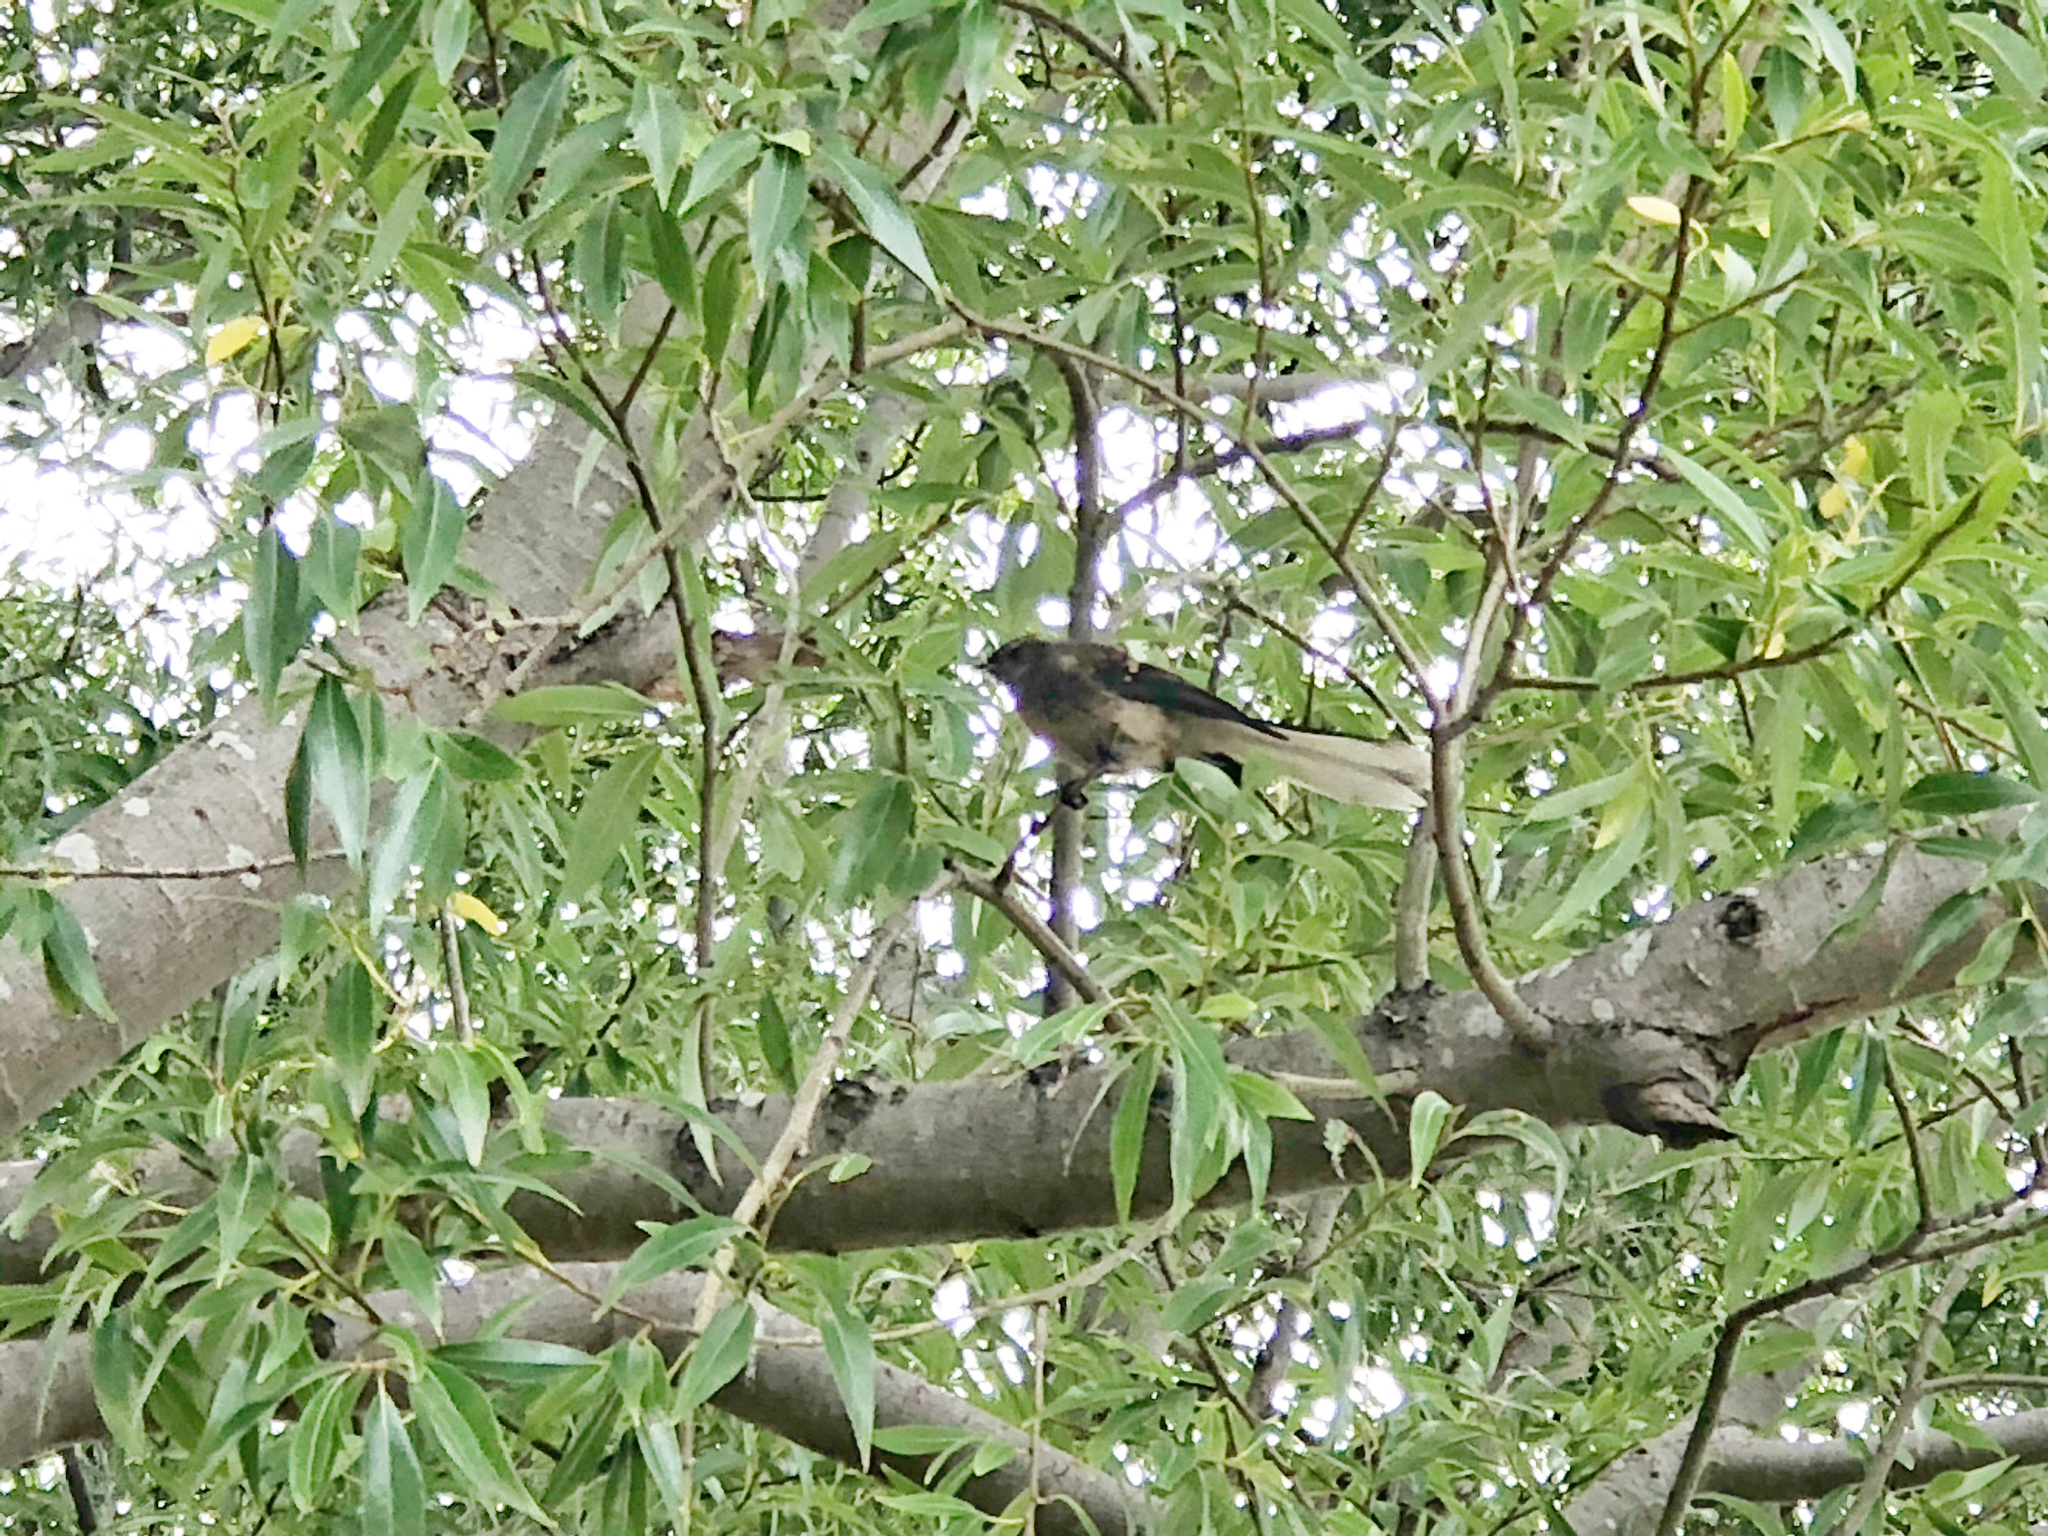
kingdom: Animalia
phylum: Chordata
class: Aves
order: Passeriformes
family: Rhipiduridae
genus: Rhipidura
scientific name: Rhipidura fuliginosa
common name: New zealand fantail
